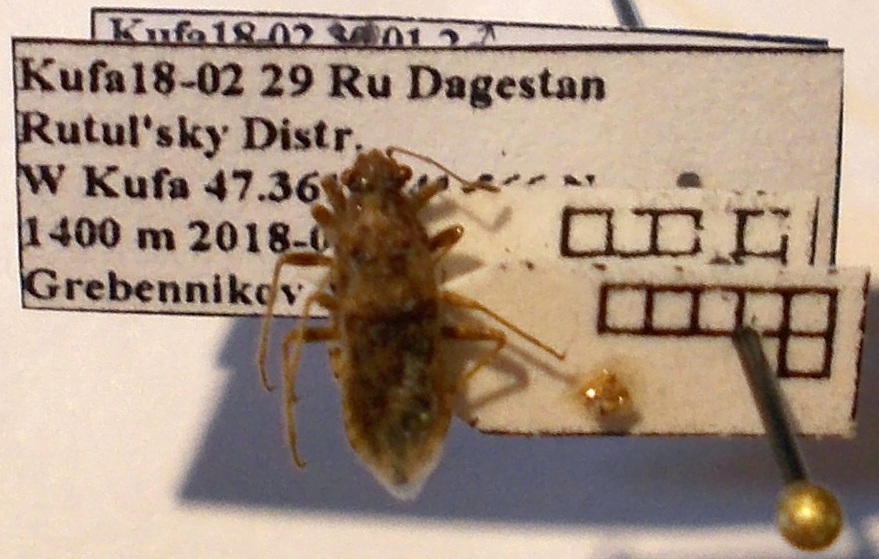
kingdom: Animalia
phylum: Arthropoda
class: Insecta
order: Hemiptera
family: Rhopalidae
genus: Rhopalus
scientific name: Rhopalus parumpunctatus
